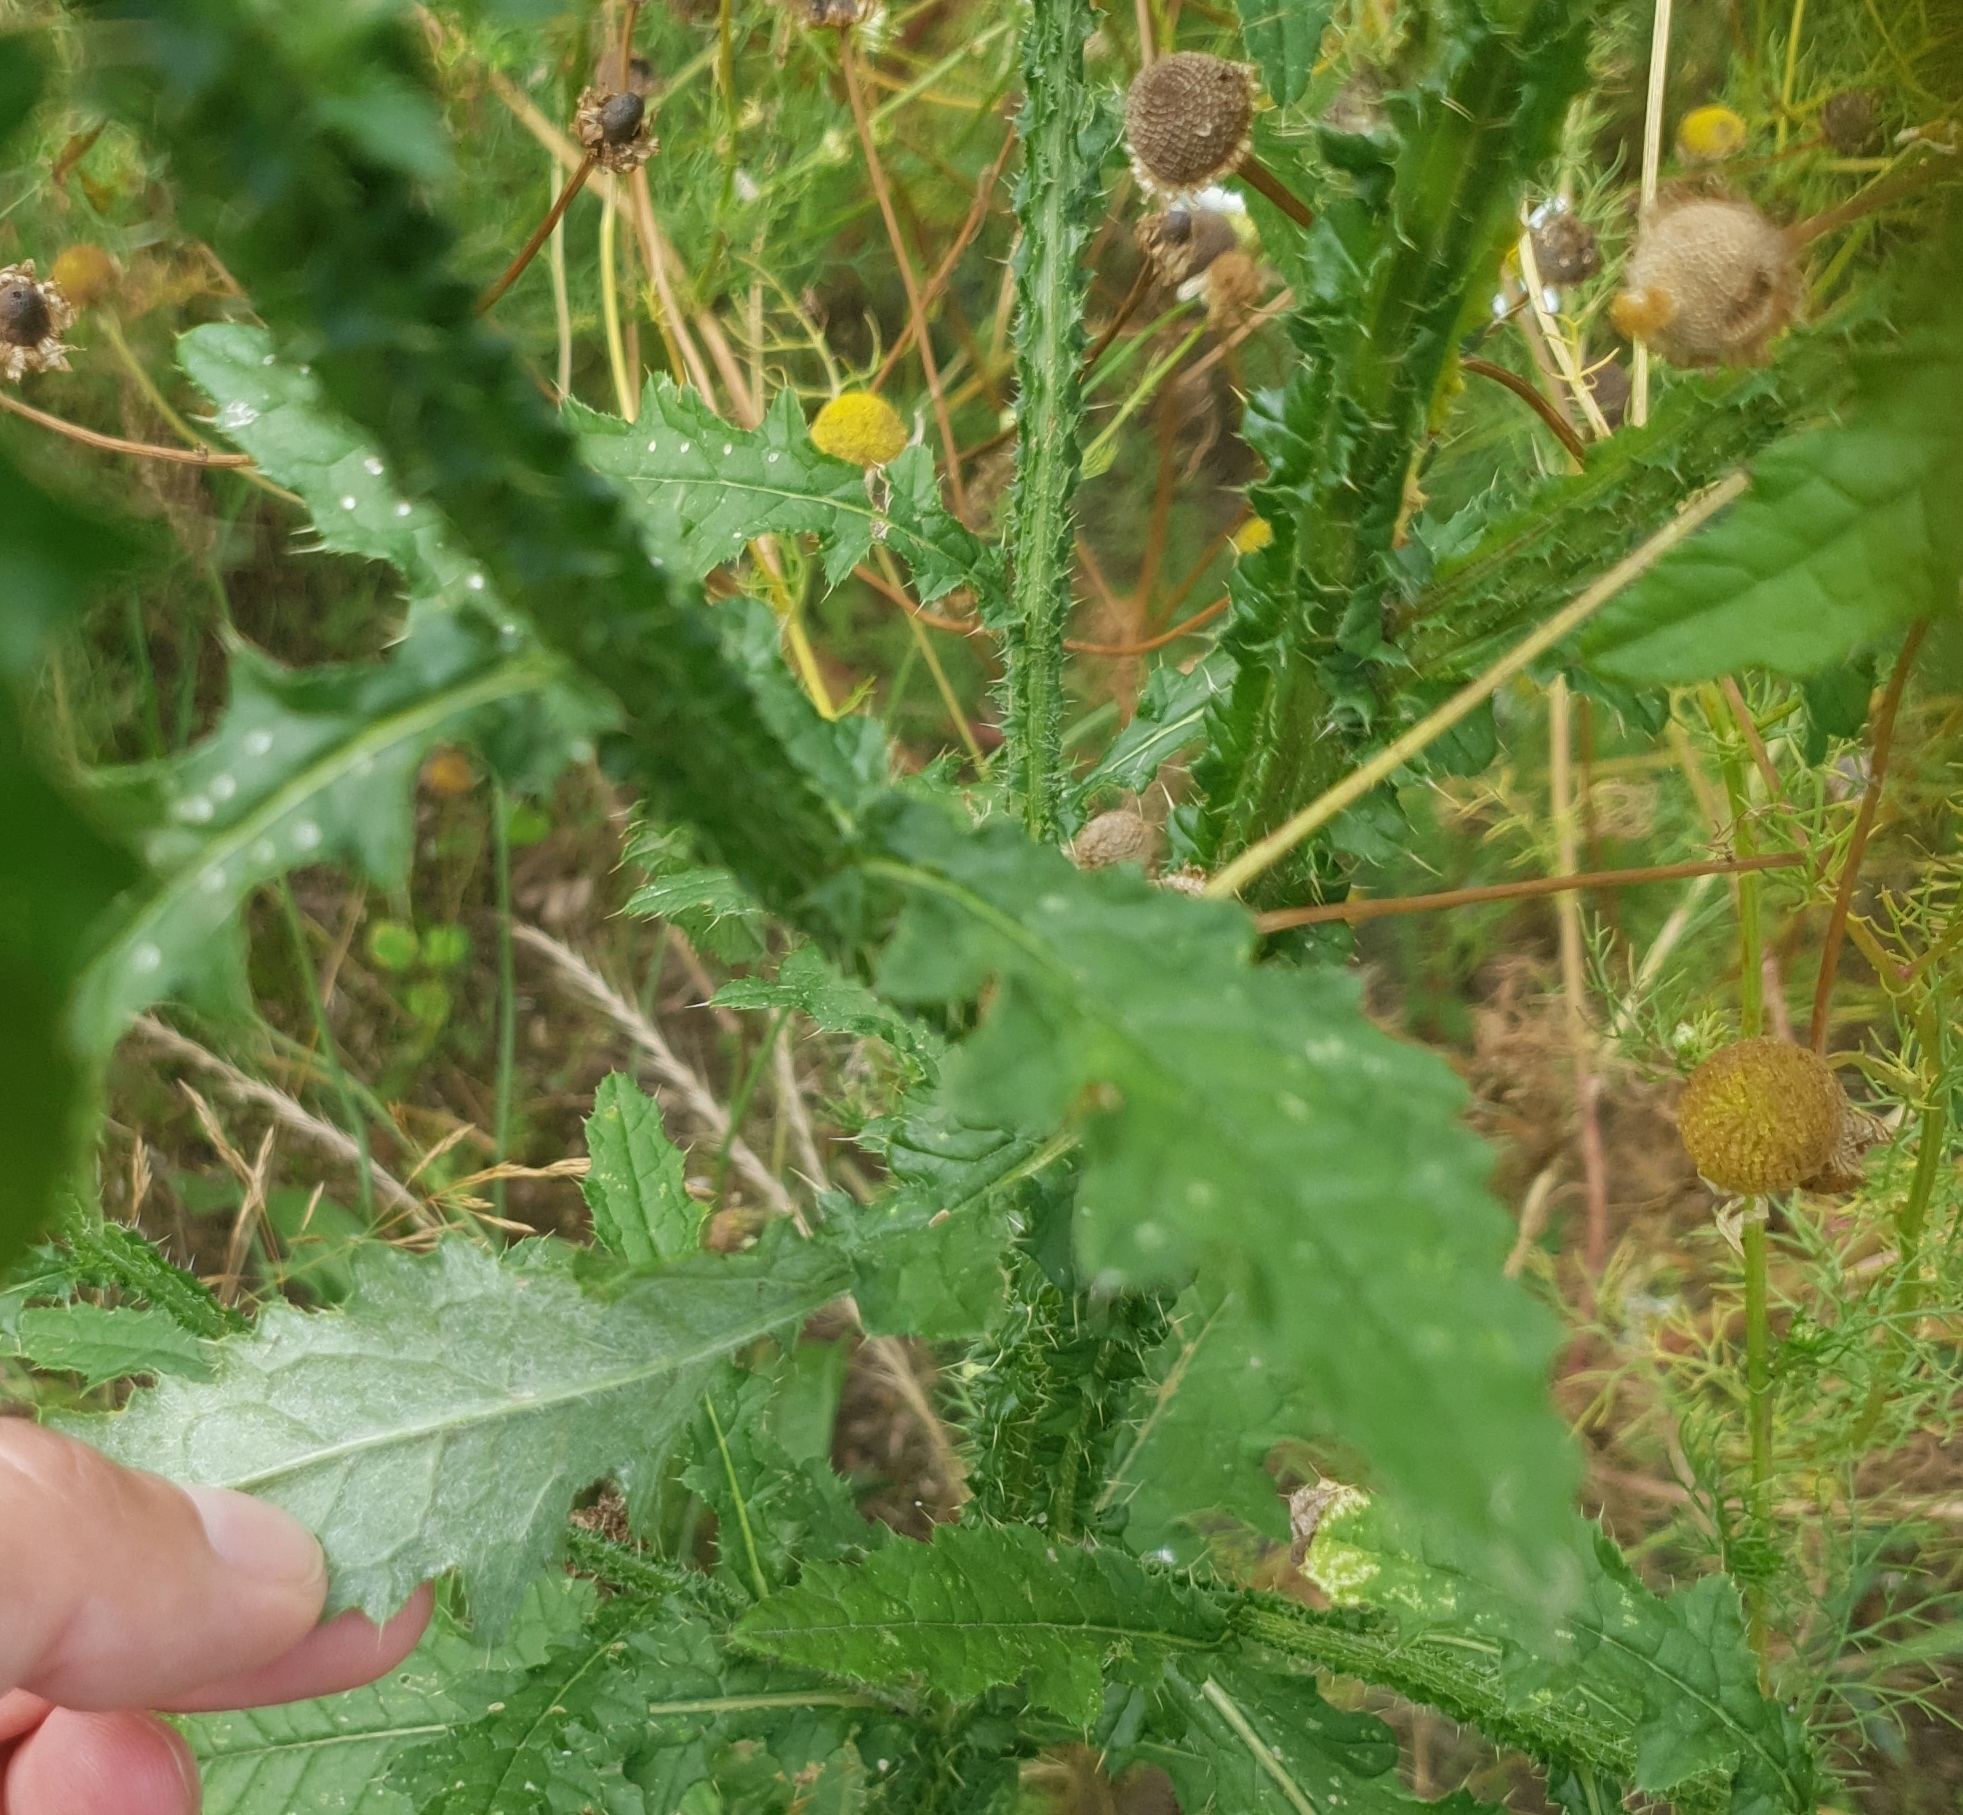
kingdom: Plantae
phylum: Tracheophyta
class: Magnoliopsida
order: Asterales
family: Asteraceae
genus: Carduus
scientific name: Carduus crispus
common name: Welted thistle
